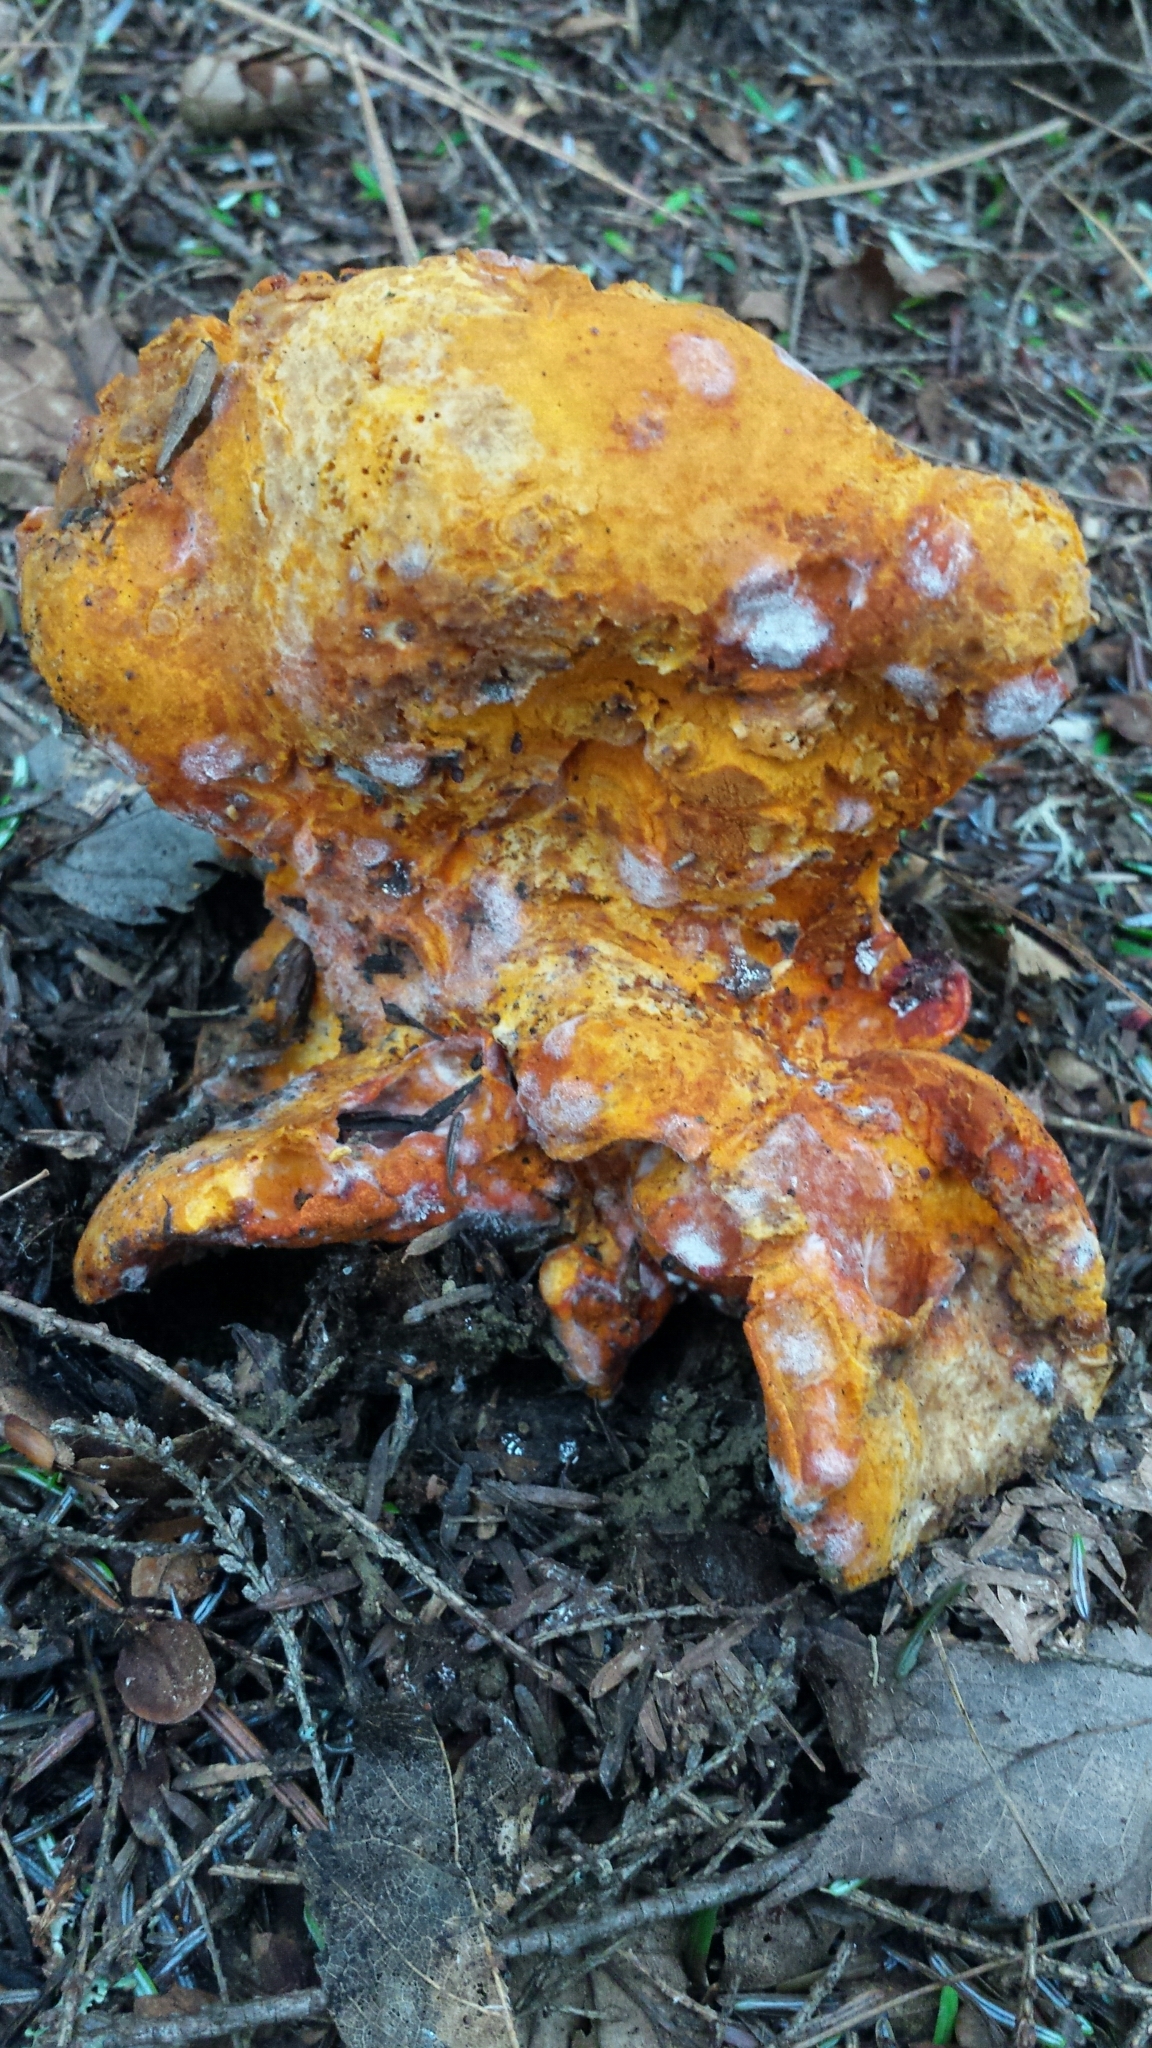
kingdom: Fungi
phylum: Ascomycota
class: Sordariomycetes
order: Hypocreales
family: Hypocreaceae
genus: Hypomyces
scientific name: Hypomyces lactifluorum
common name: Lobster mushroom
